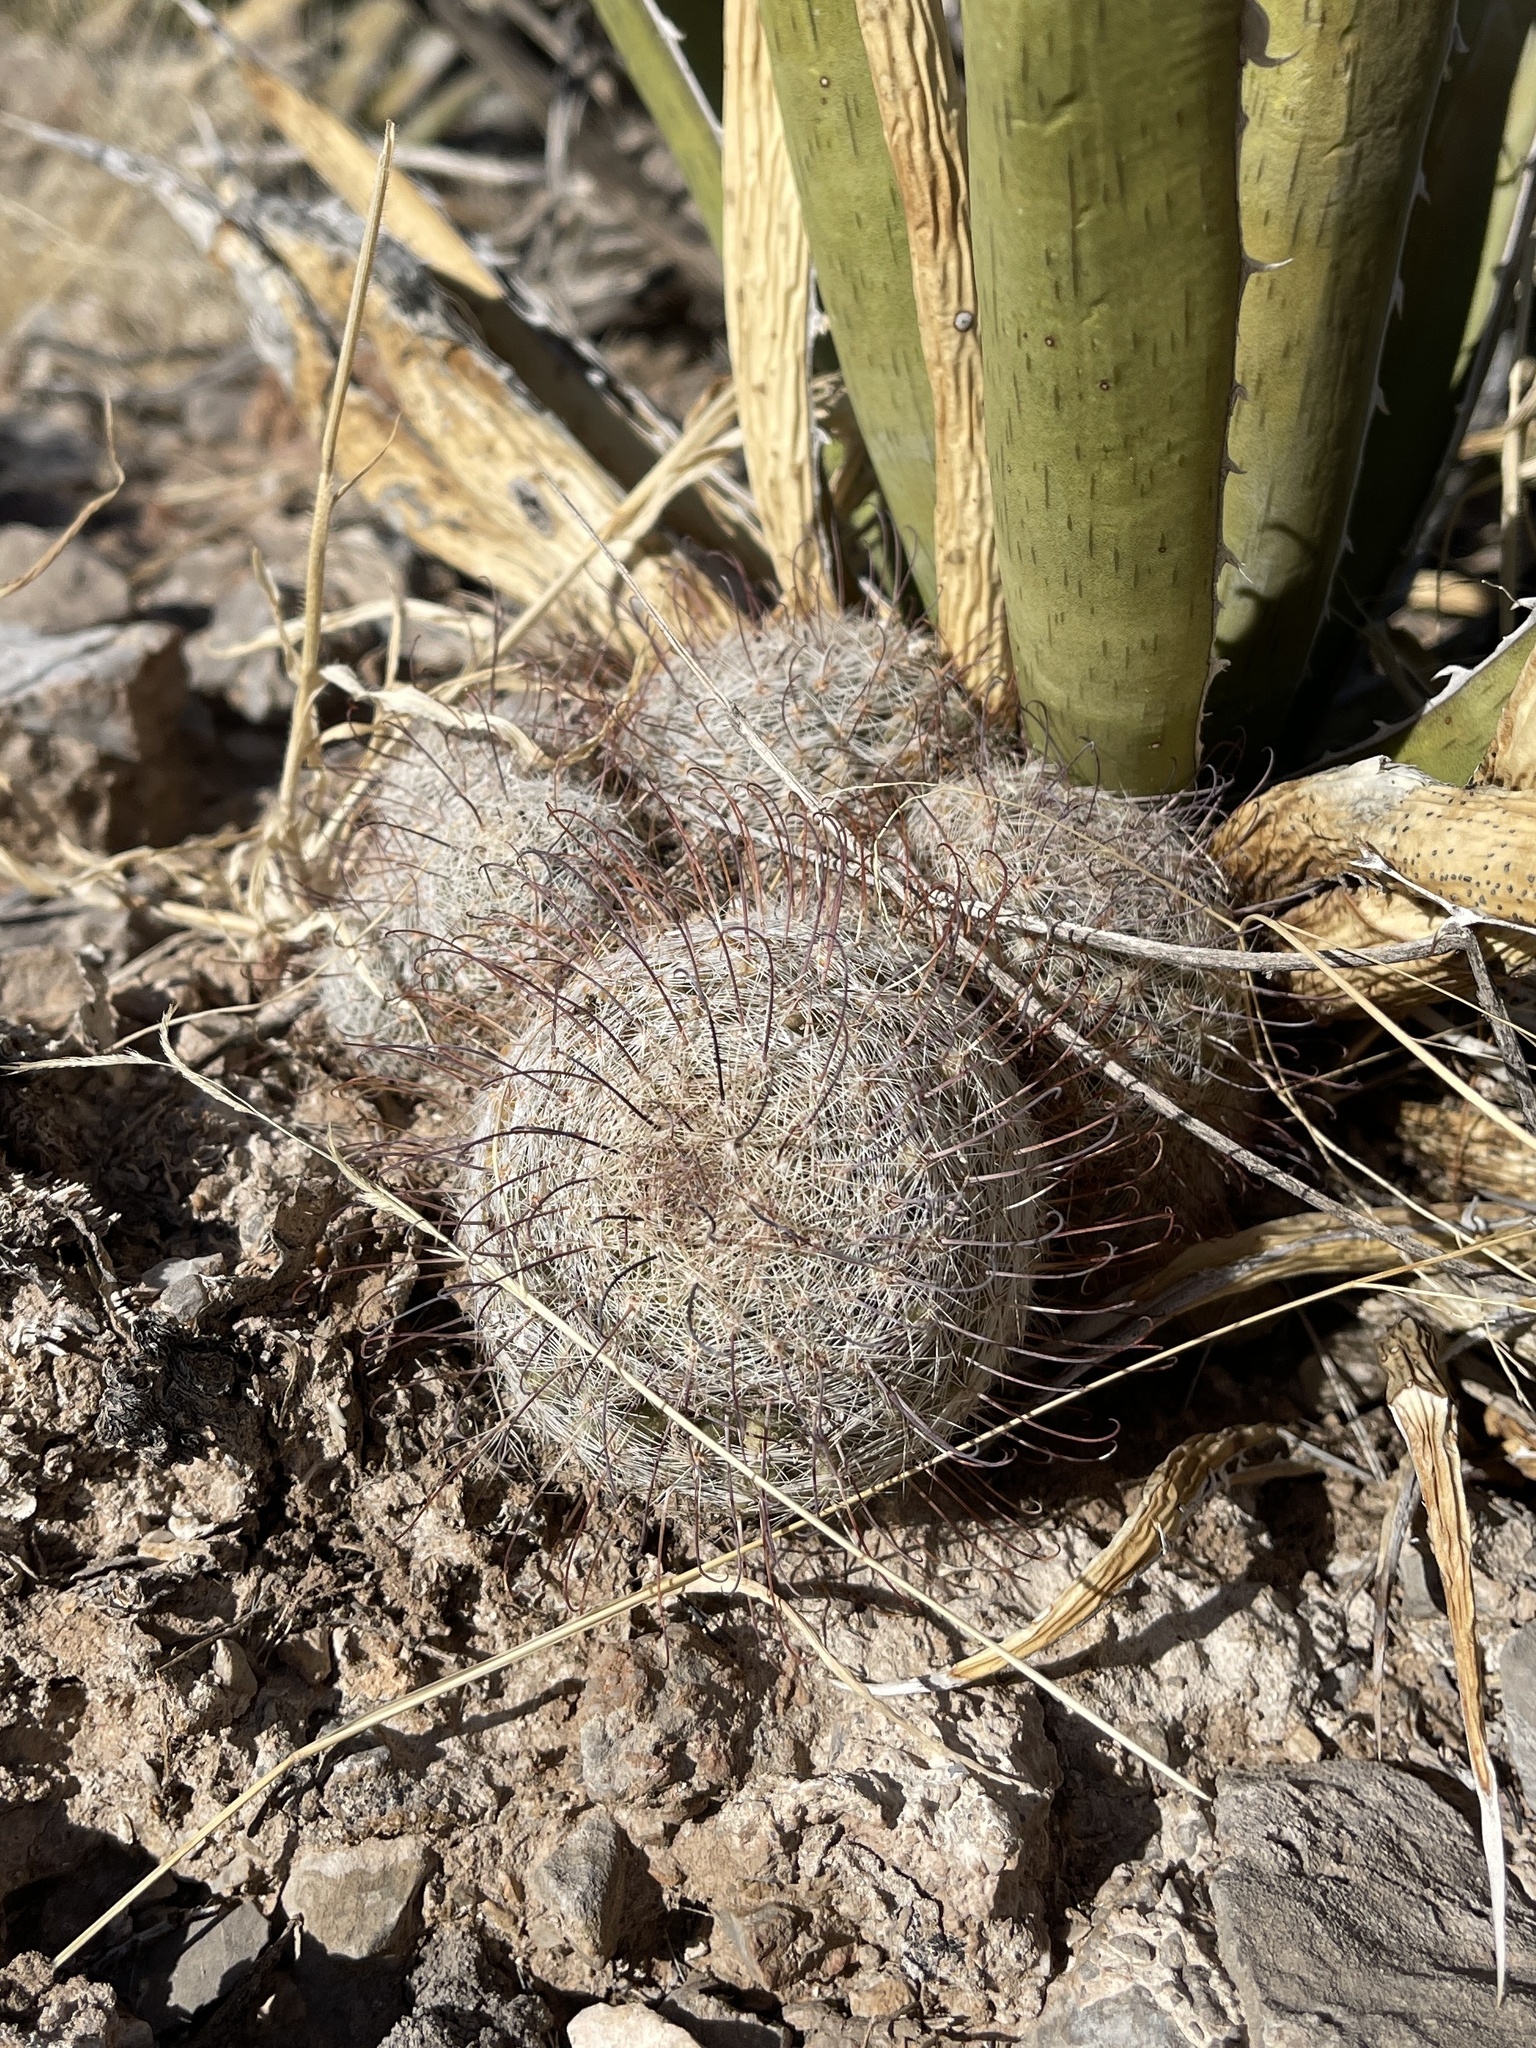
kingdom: Plantae
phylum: Tracheophyta
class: Magnoliopsida
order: Caryophyllales
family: Cactaceae
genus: Cochemiea
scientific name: Cochemiea grahamii
